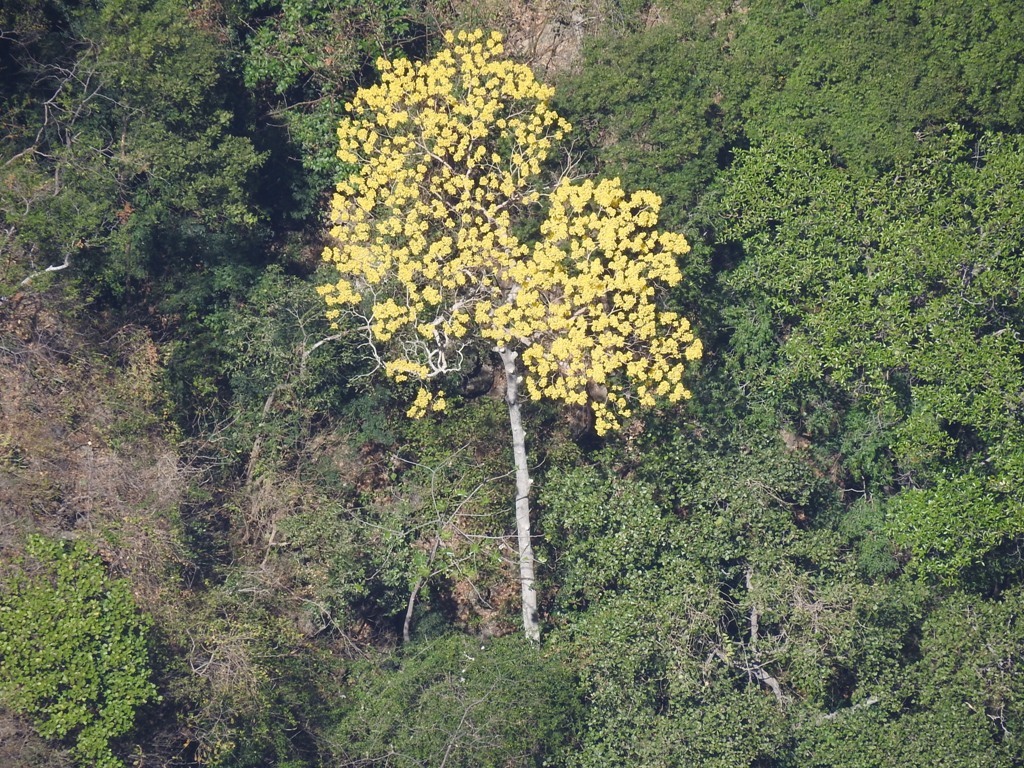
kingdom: Plantae
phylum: Tracheophyta
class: Magnoliopsida
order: Lamiales
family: Bignoniaceae
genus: Handroanthus
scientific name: Handroanthus chrysanthus
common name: Trumpet trees
